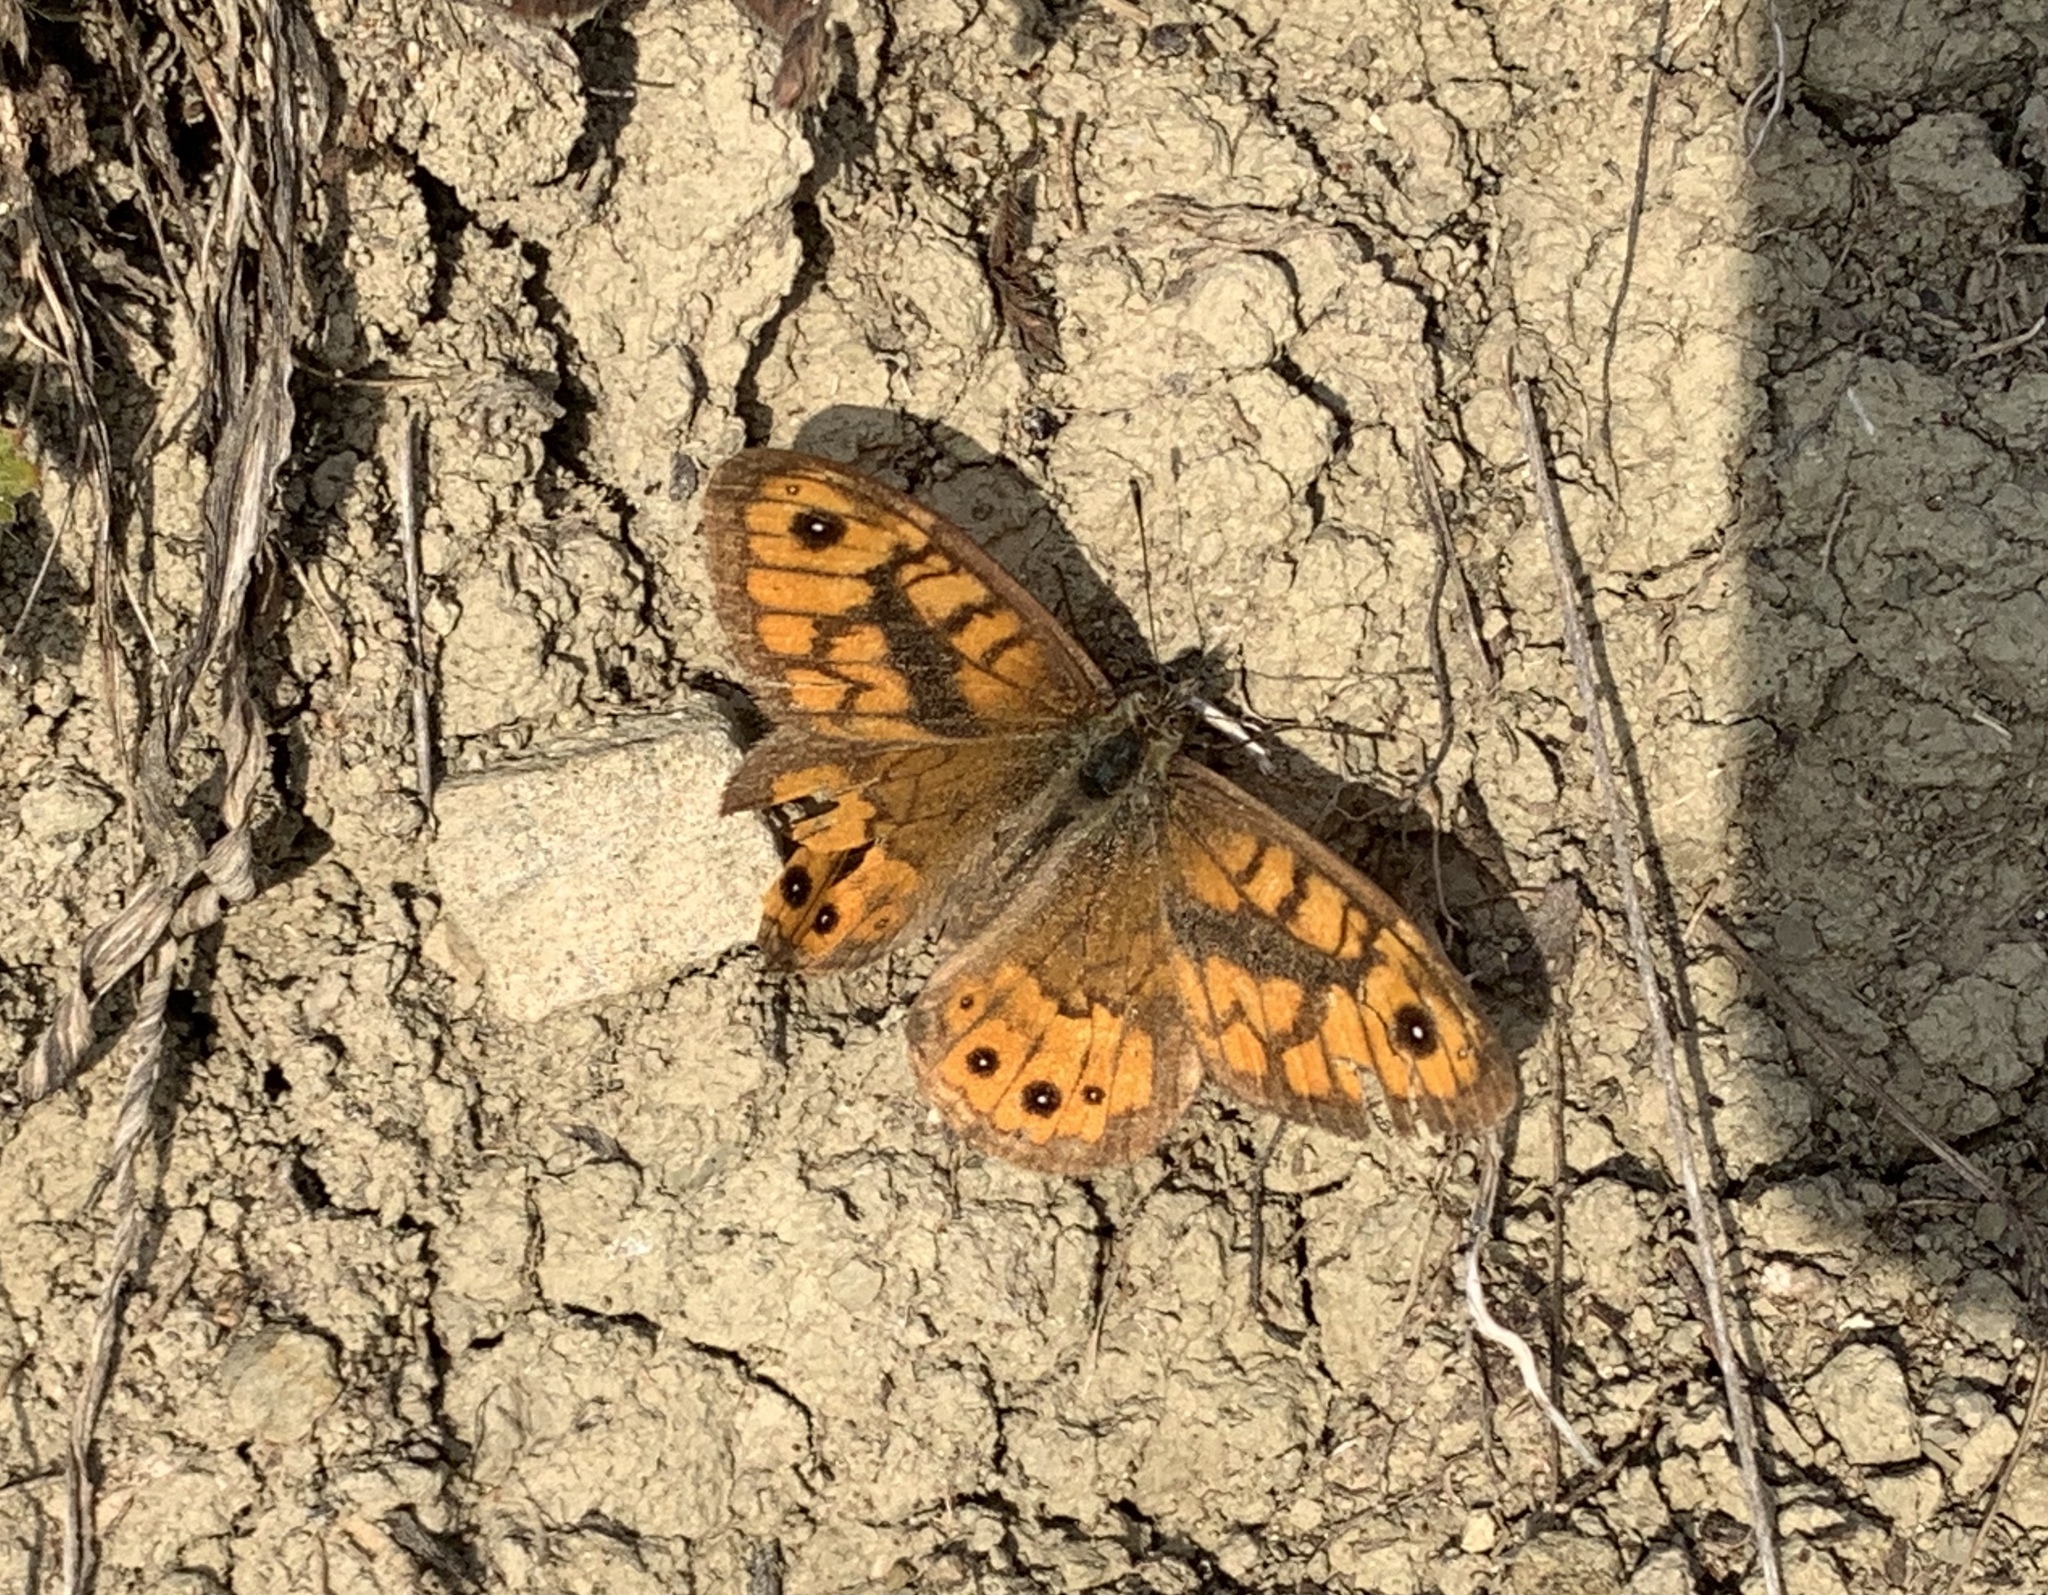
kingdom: Animalia
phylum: Arthropoda
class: Insecta
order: Lepidoptera
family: Nymphalidae
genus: Pararge
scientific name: Pararge Lasiommata megera
